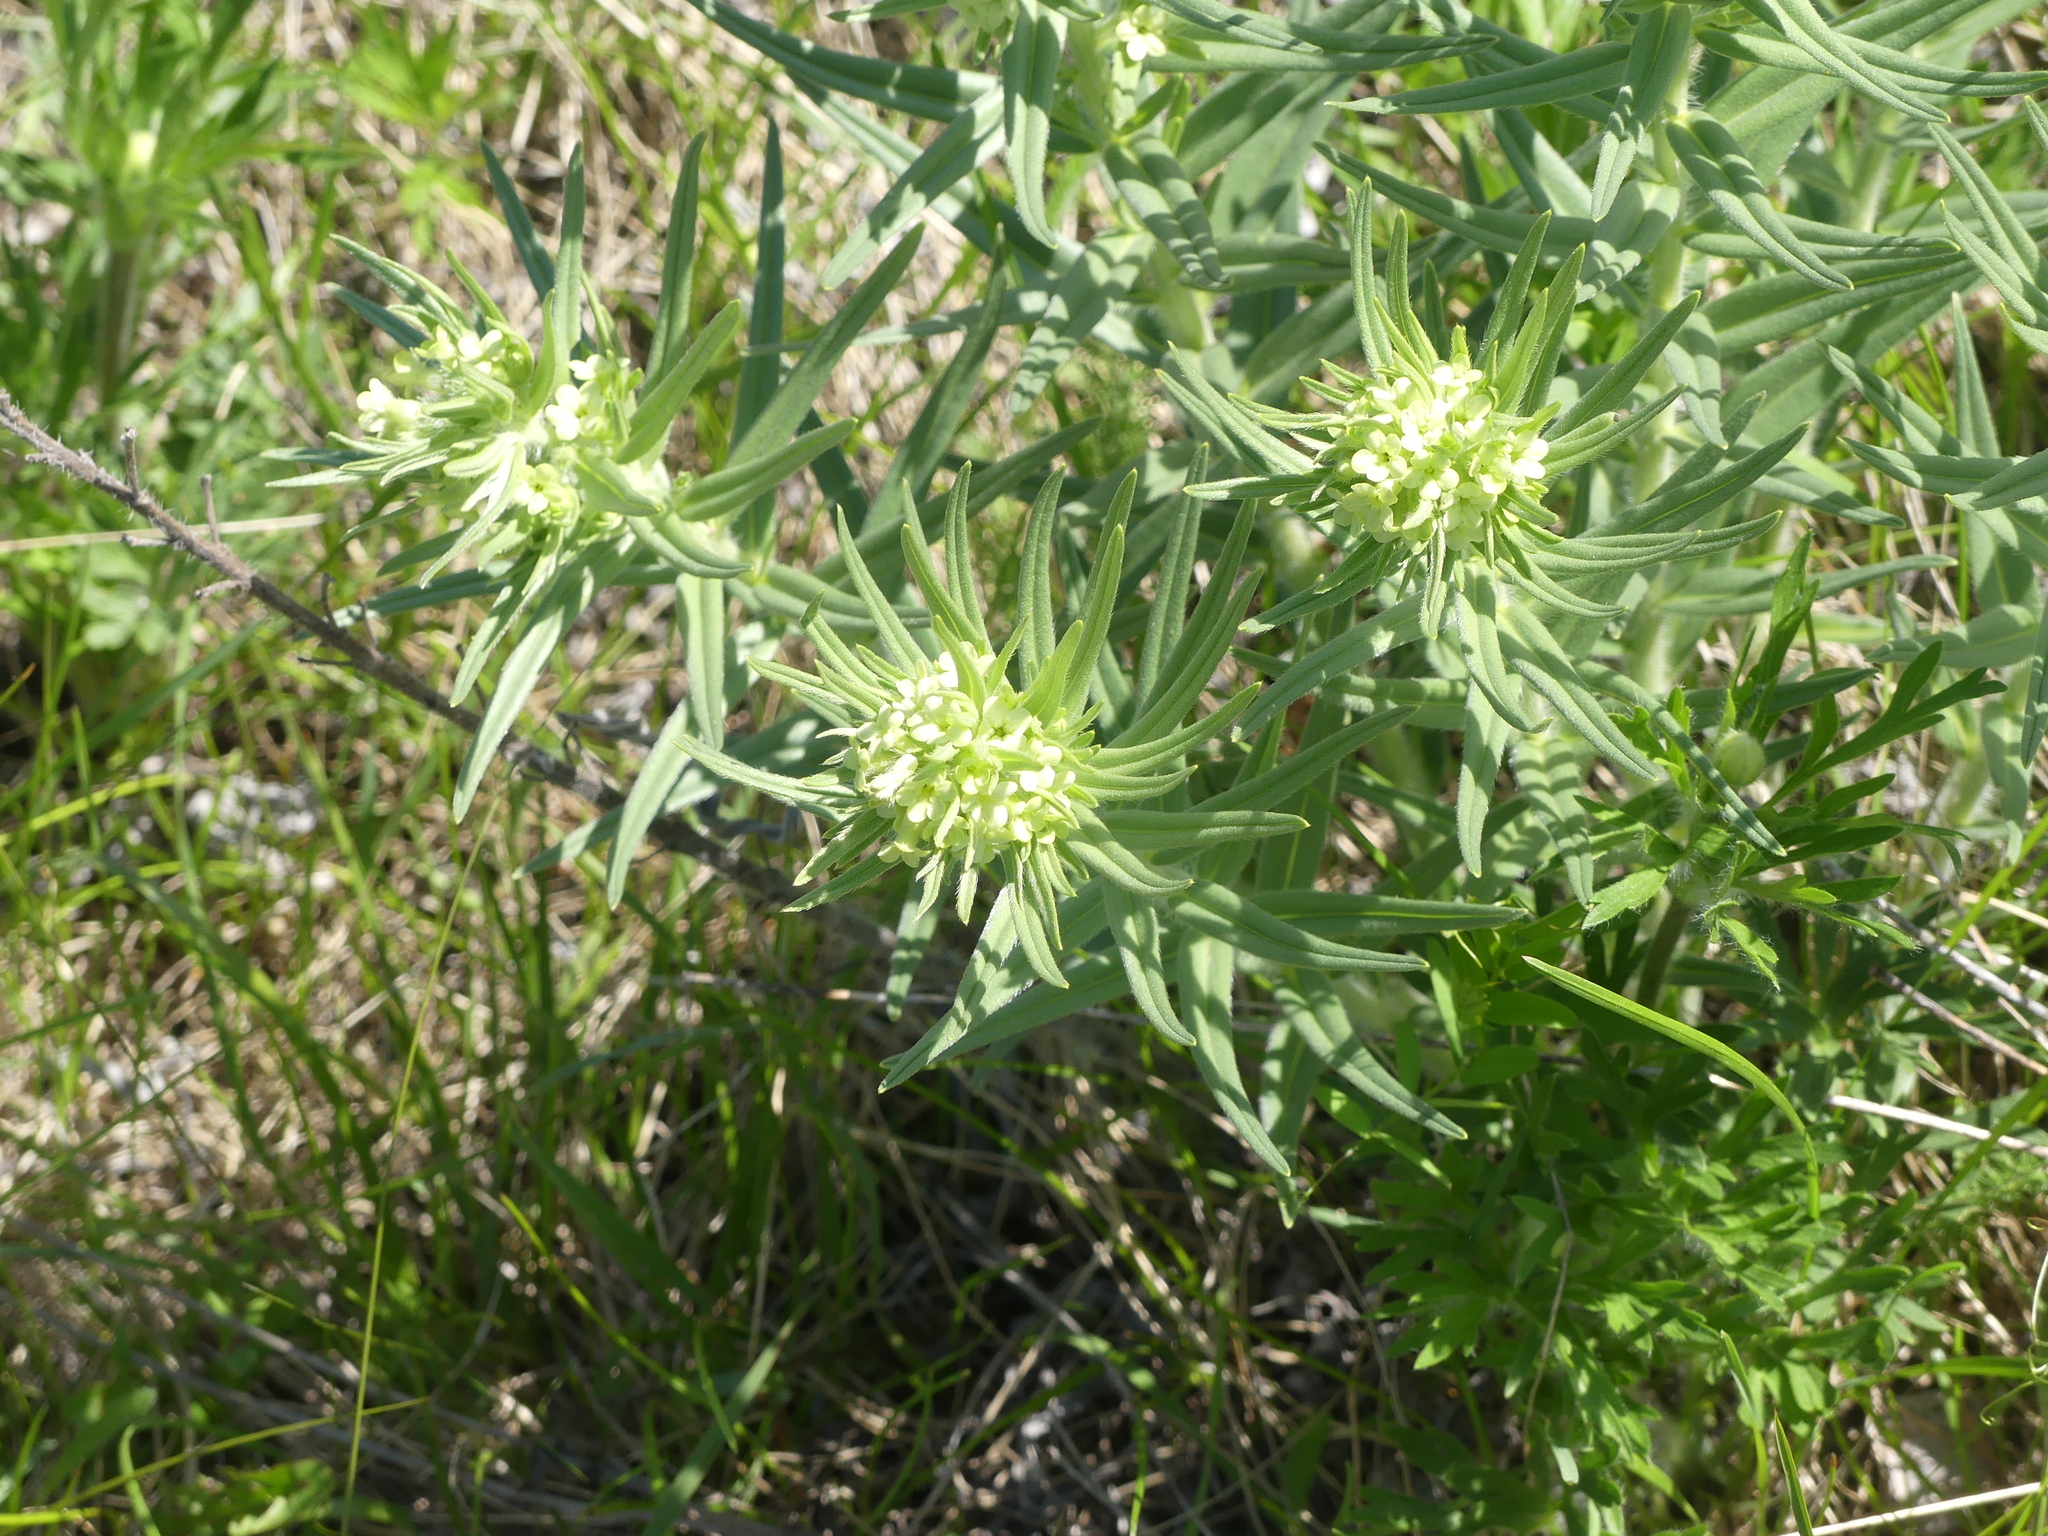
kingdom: Plantae
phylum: Tracheophyta
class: Magnoliopsida
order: Boraginales
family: Boraginaceae
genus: Lithospermum
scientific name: Lithospermum ruderale
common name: Western gromwell
